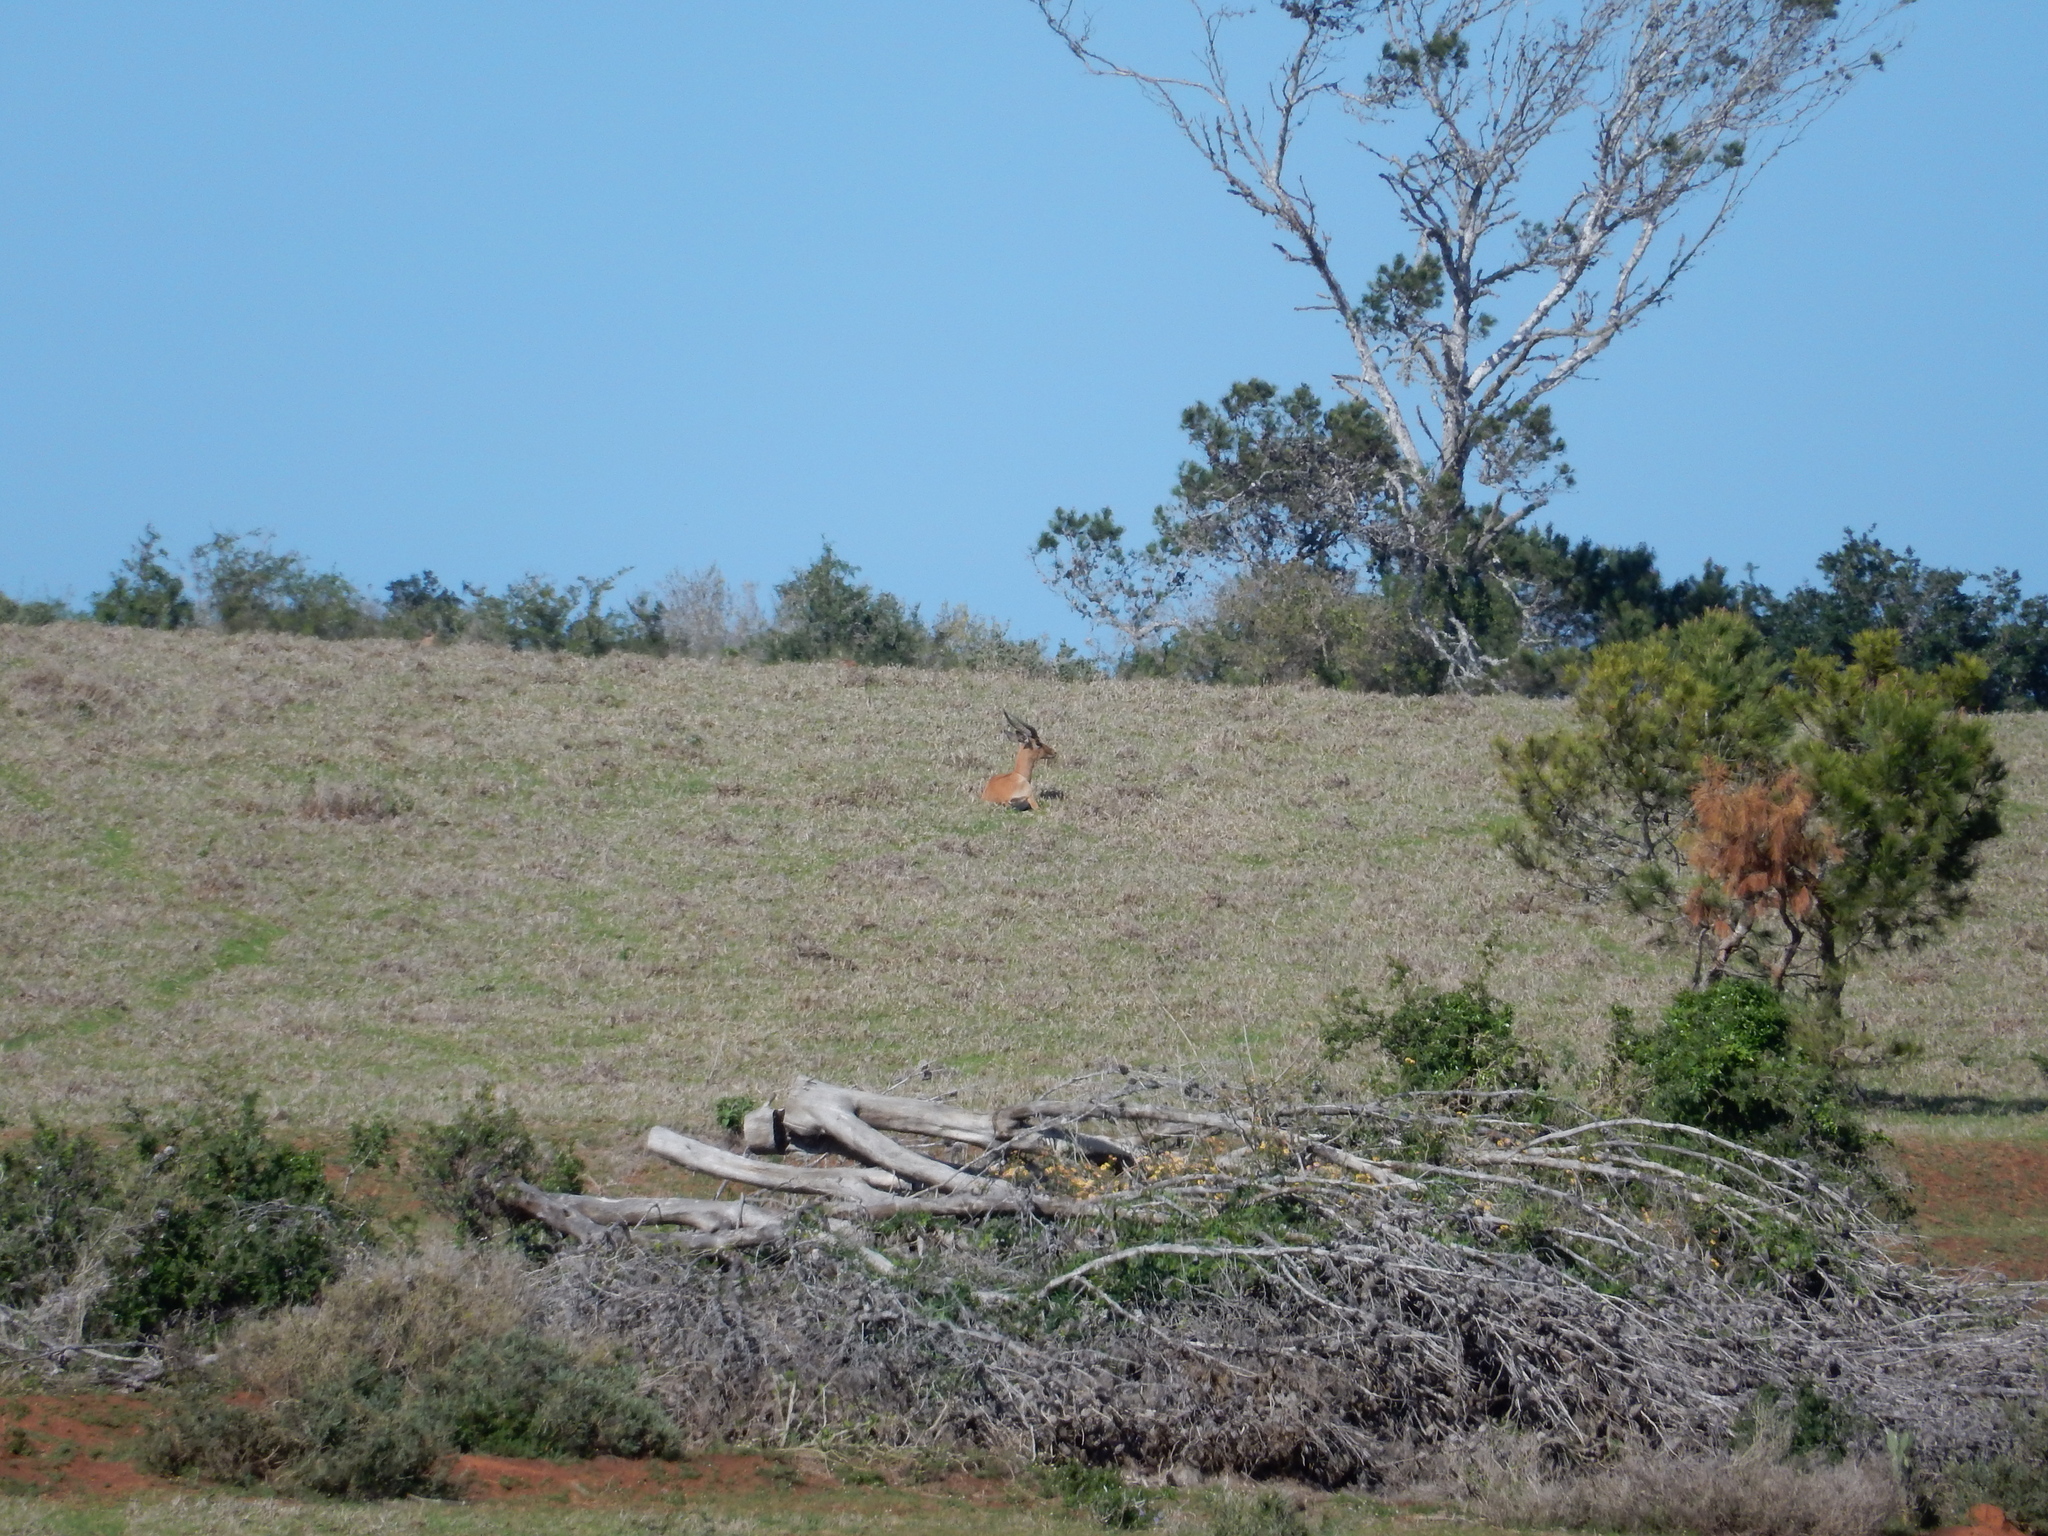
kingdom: Animalia
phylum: Chordata
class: Mammalia
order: Artiodactyla
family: Bovidae
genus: Aepyceros
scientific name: Aepyceros melampus
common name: Impala
